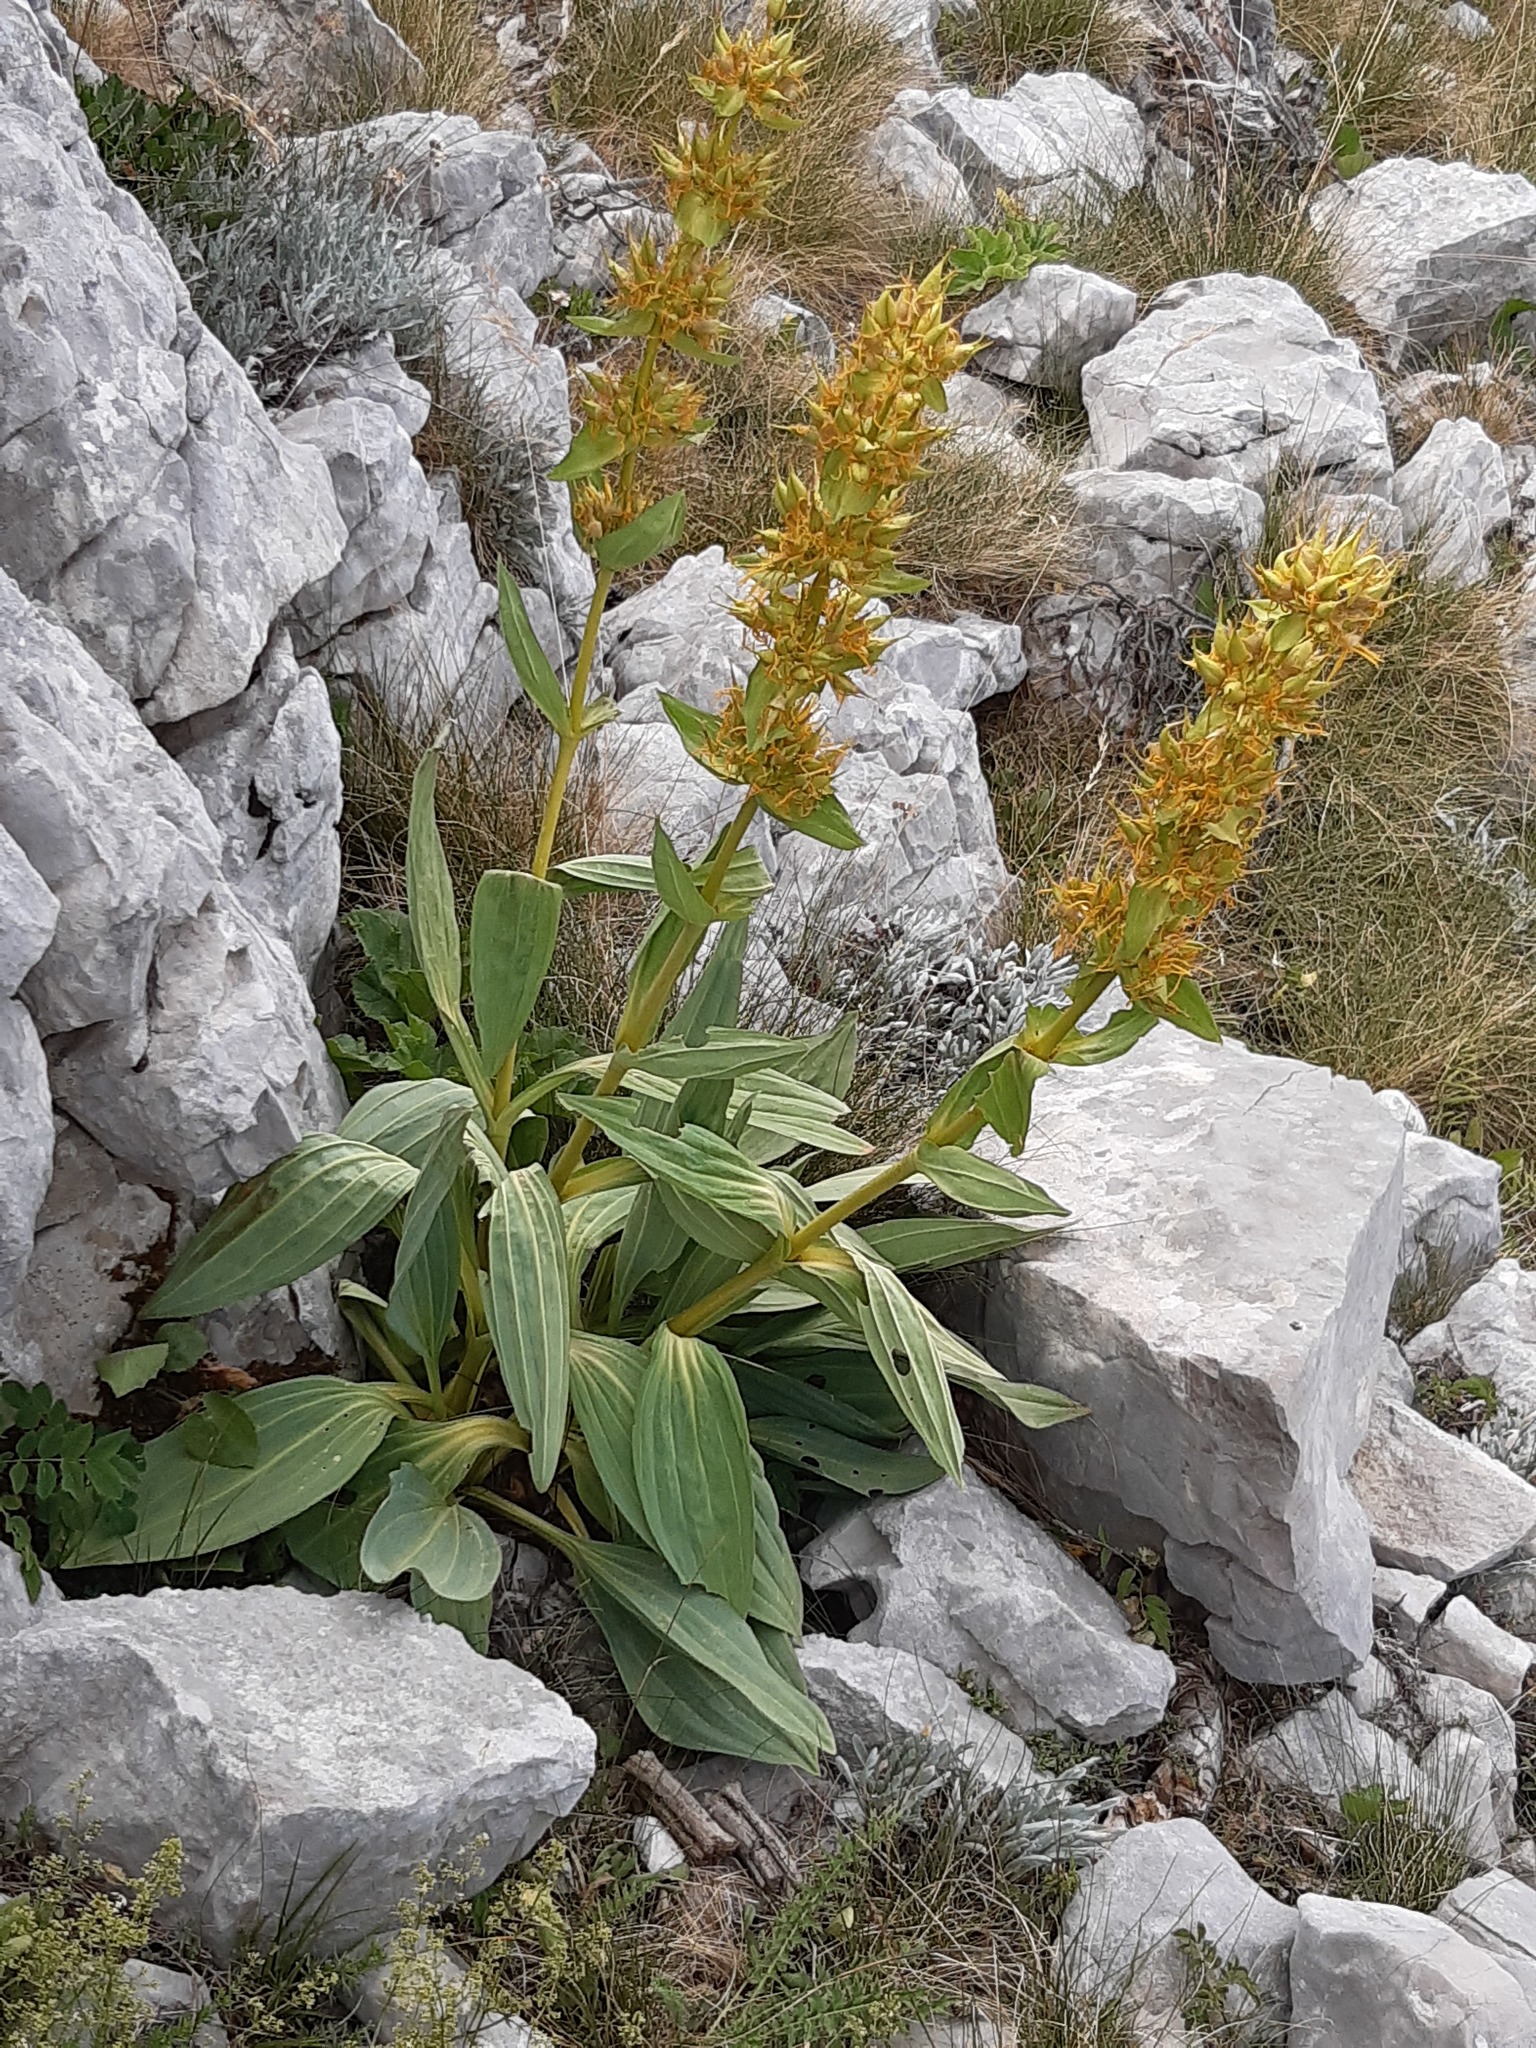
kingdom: Plantae
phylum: Tracheophyta
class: Magnoliopsida
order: Gentianales
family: Gentianaceae
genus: Gentiana
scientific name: Gentiana lutea
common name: Great yellow gentian
